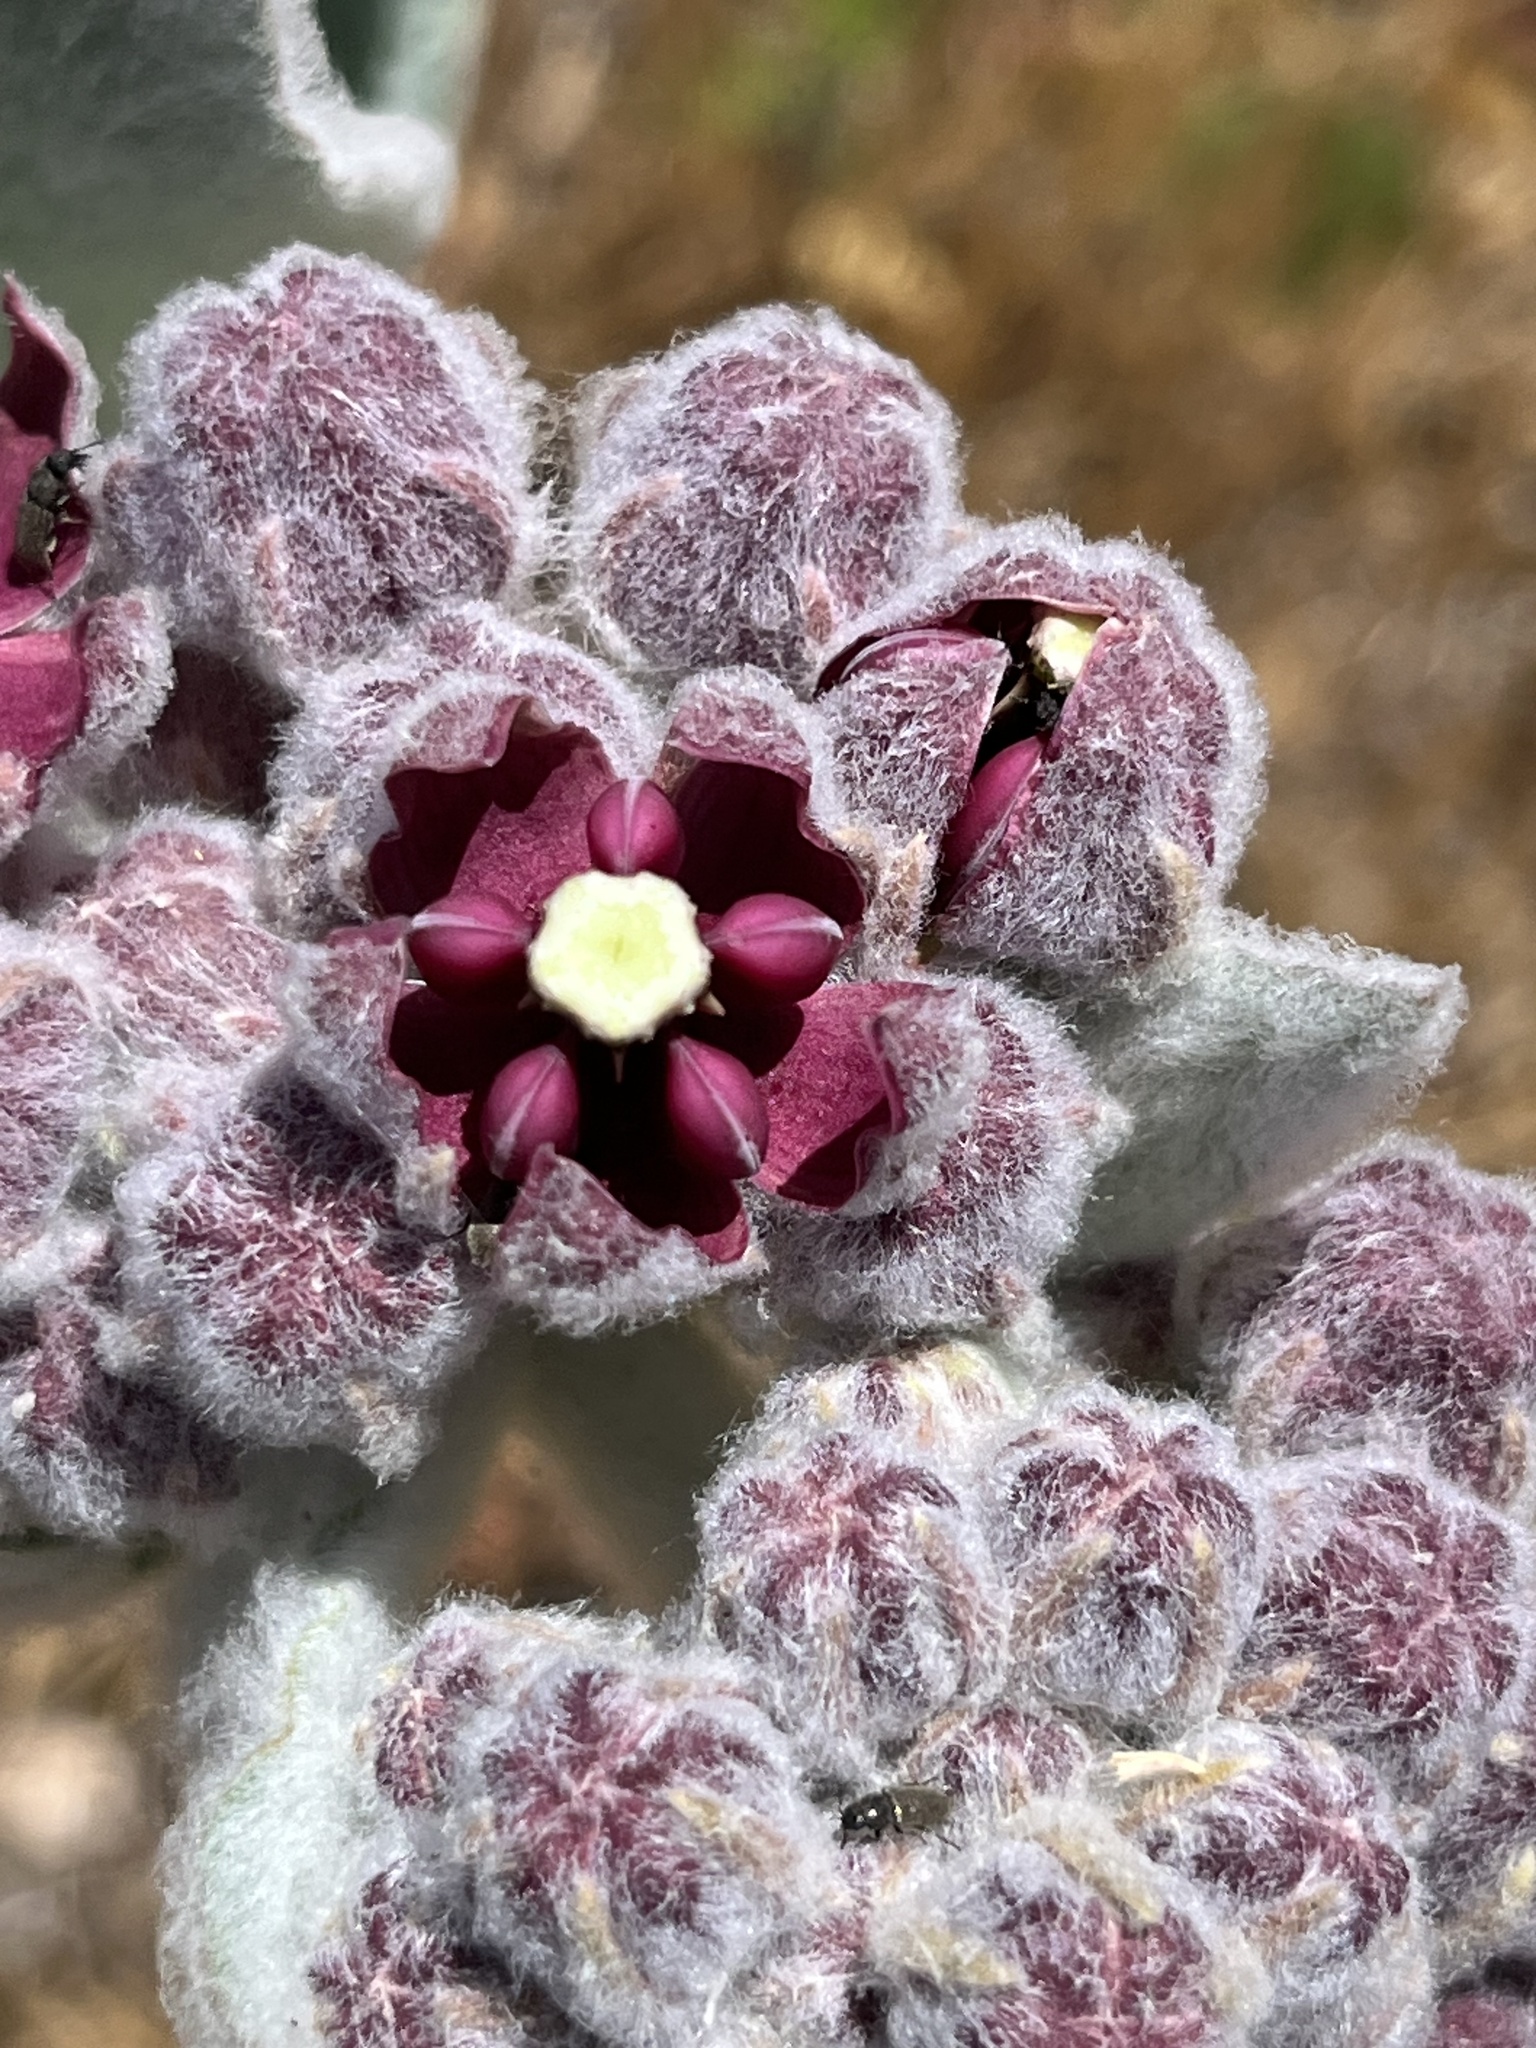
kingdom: Plantae
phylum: Tracheophyta
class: Magnoliopsida
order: Gentianales
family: Apocynaceae
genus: Asclepias
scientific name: Asclepias californica
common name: California milkweed
